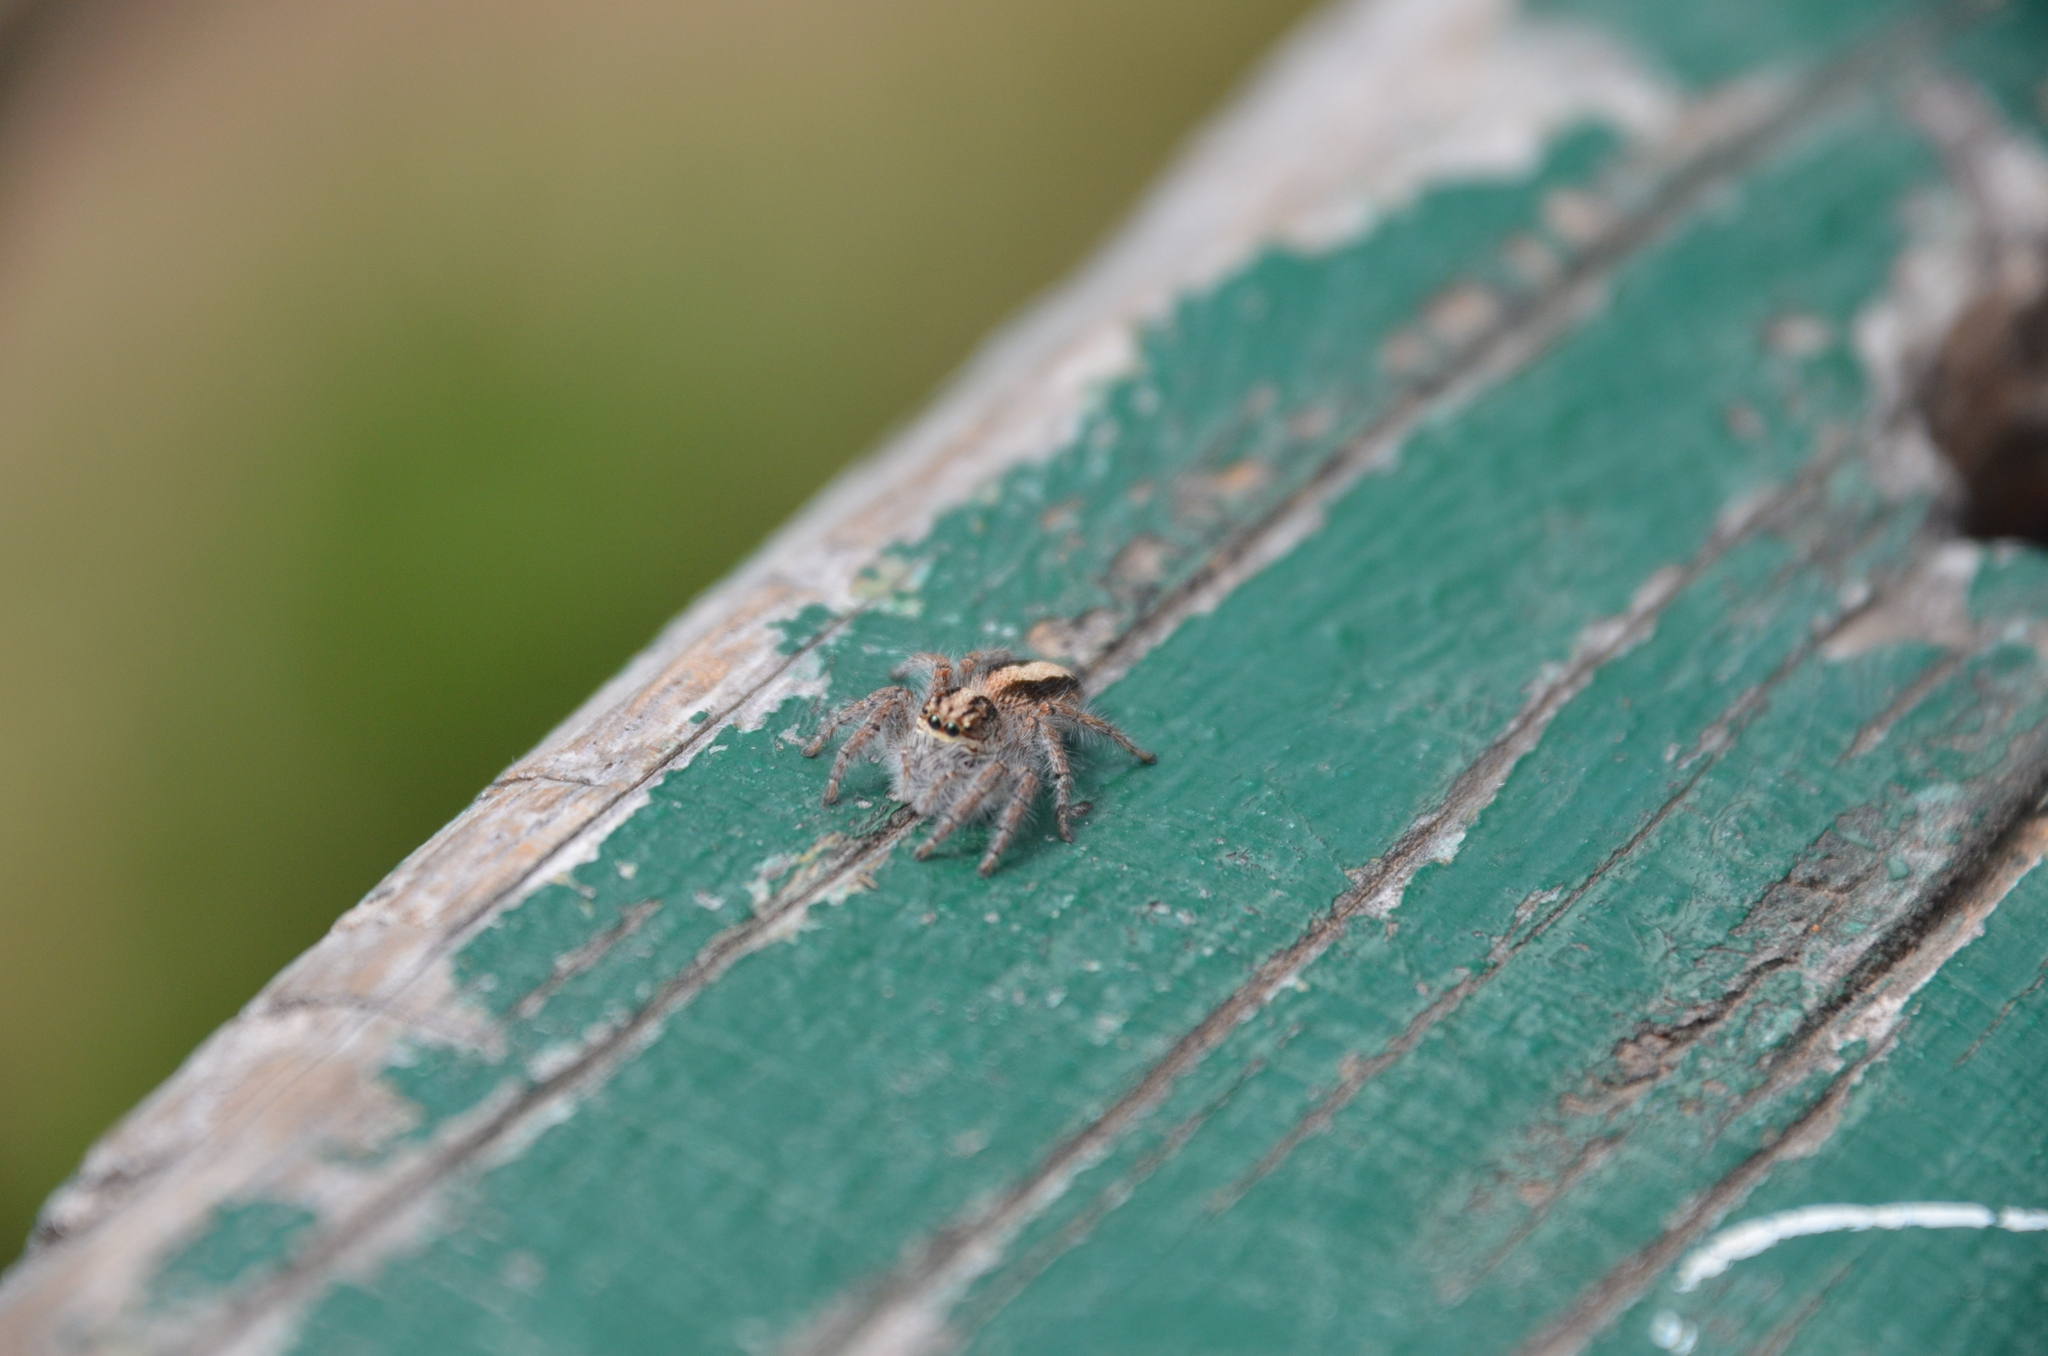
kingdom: Animalia
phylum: Arthropoda
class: Arachnida
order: Araneae
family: Salticidae
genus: Megafreya
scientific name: Megafreya sutrix
